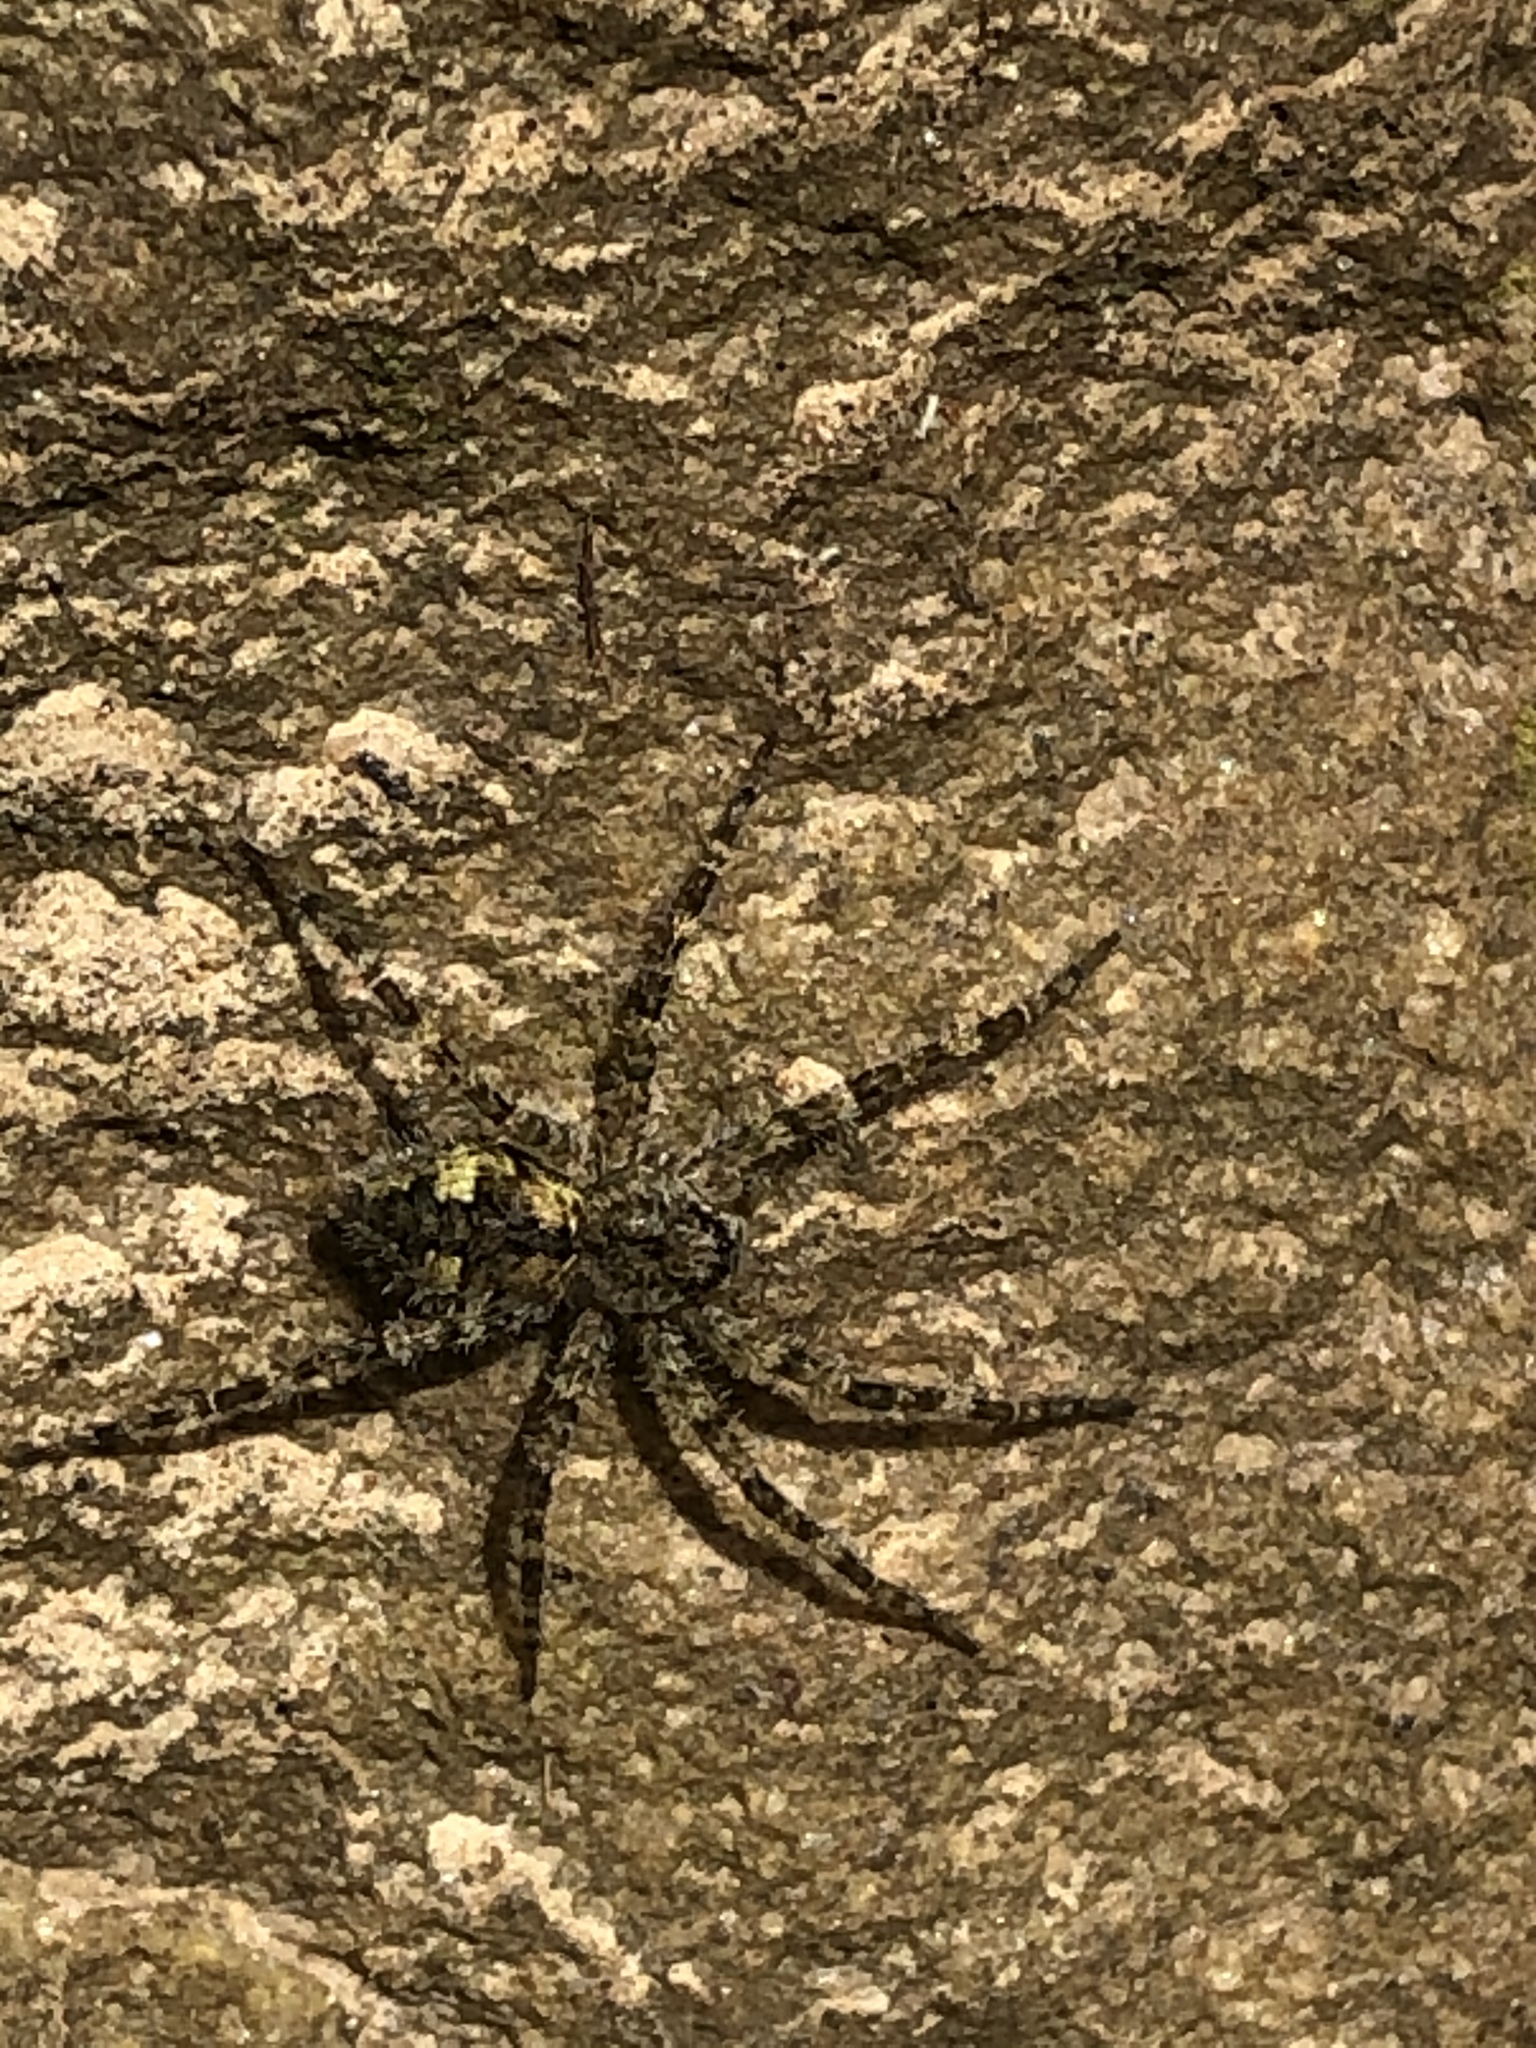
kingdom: Animalia
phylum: Arthropoda
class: Arachnida
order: Araneae
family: Pisauridae
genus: Dolomedes
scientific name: Dolomedes albineus
